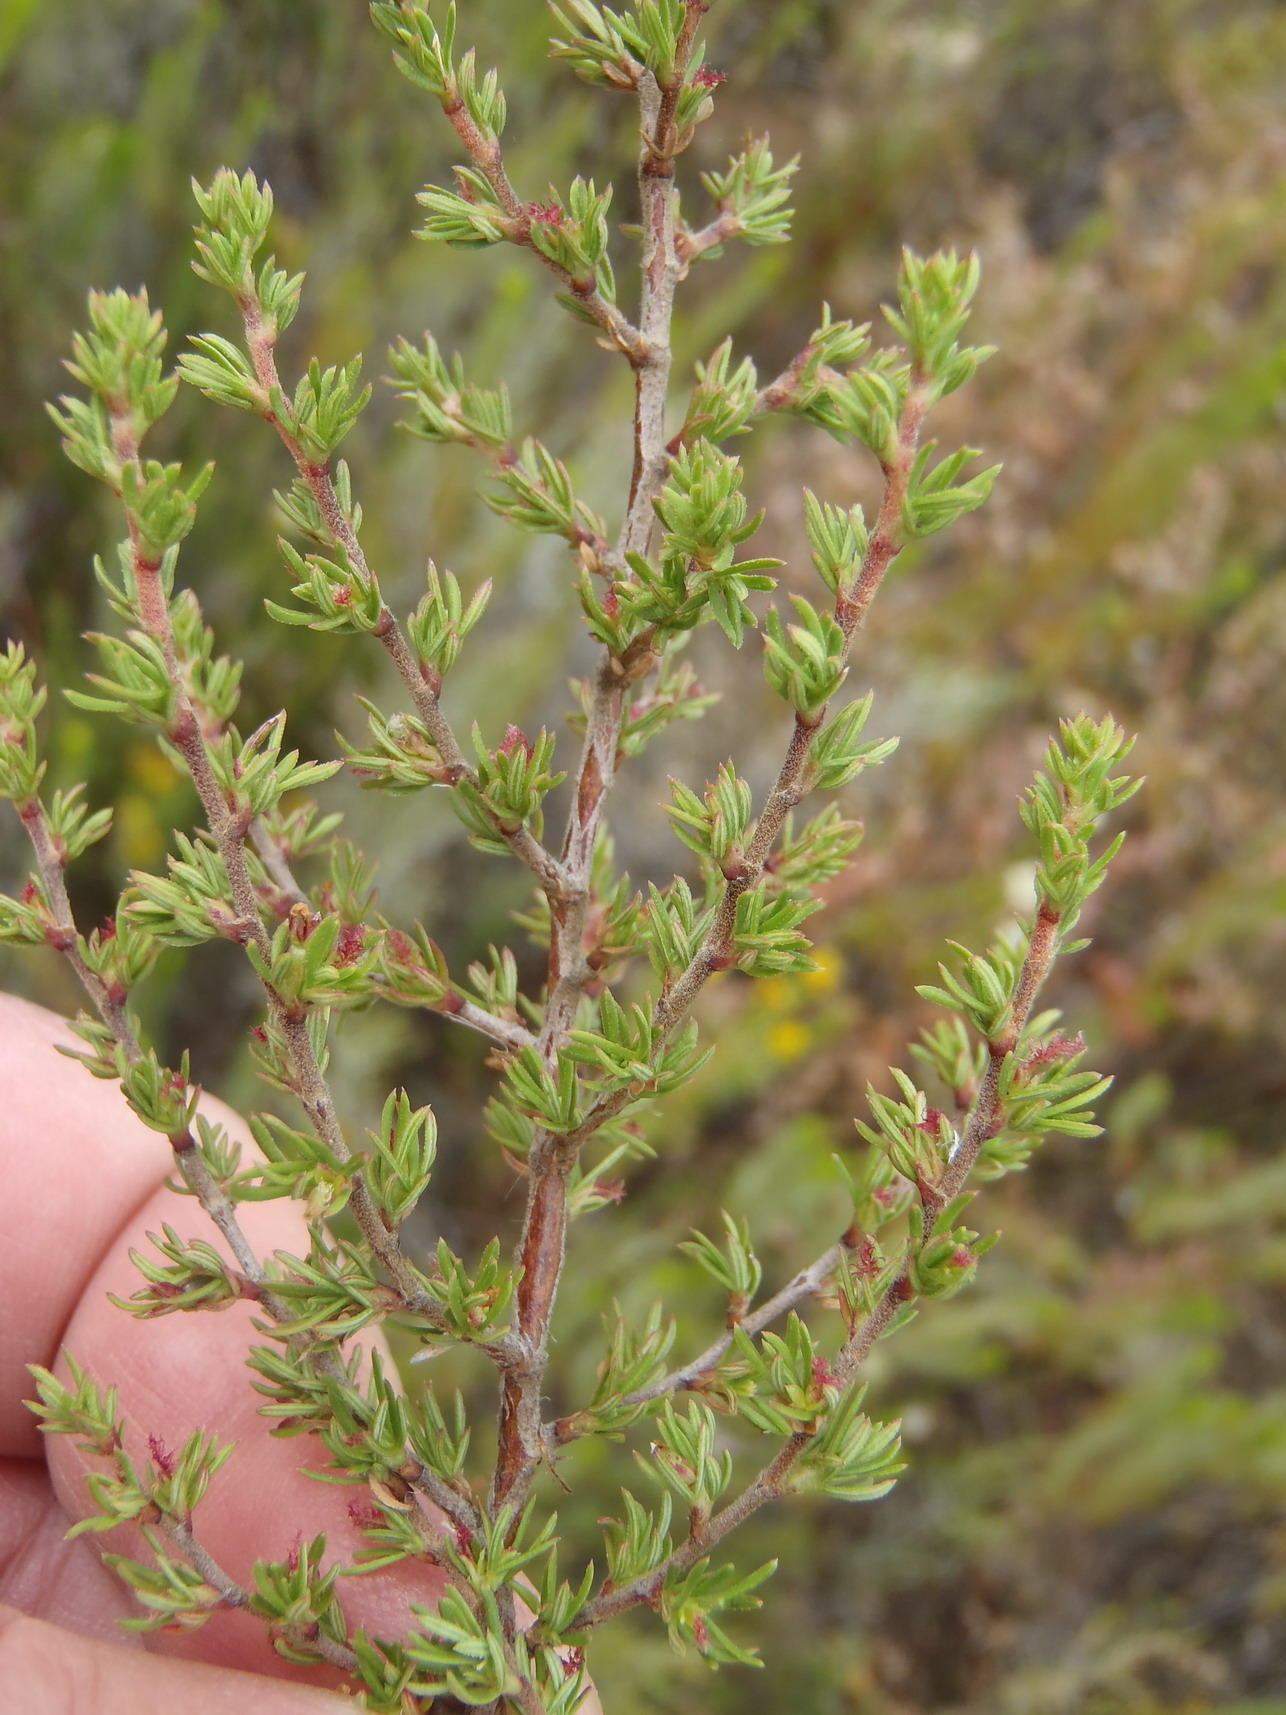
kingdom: Plantae
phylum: Tracheophyta
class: Magnoliopsida
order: Rosales
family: Rosaceae
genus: Cliffortia
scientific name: Cliffortia arcuata
